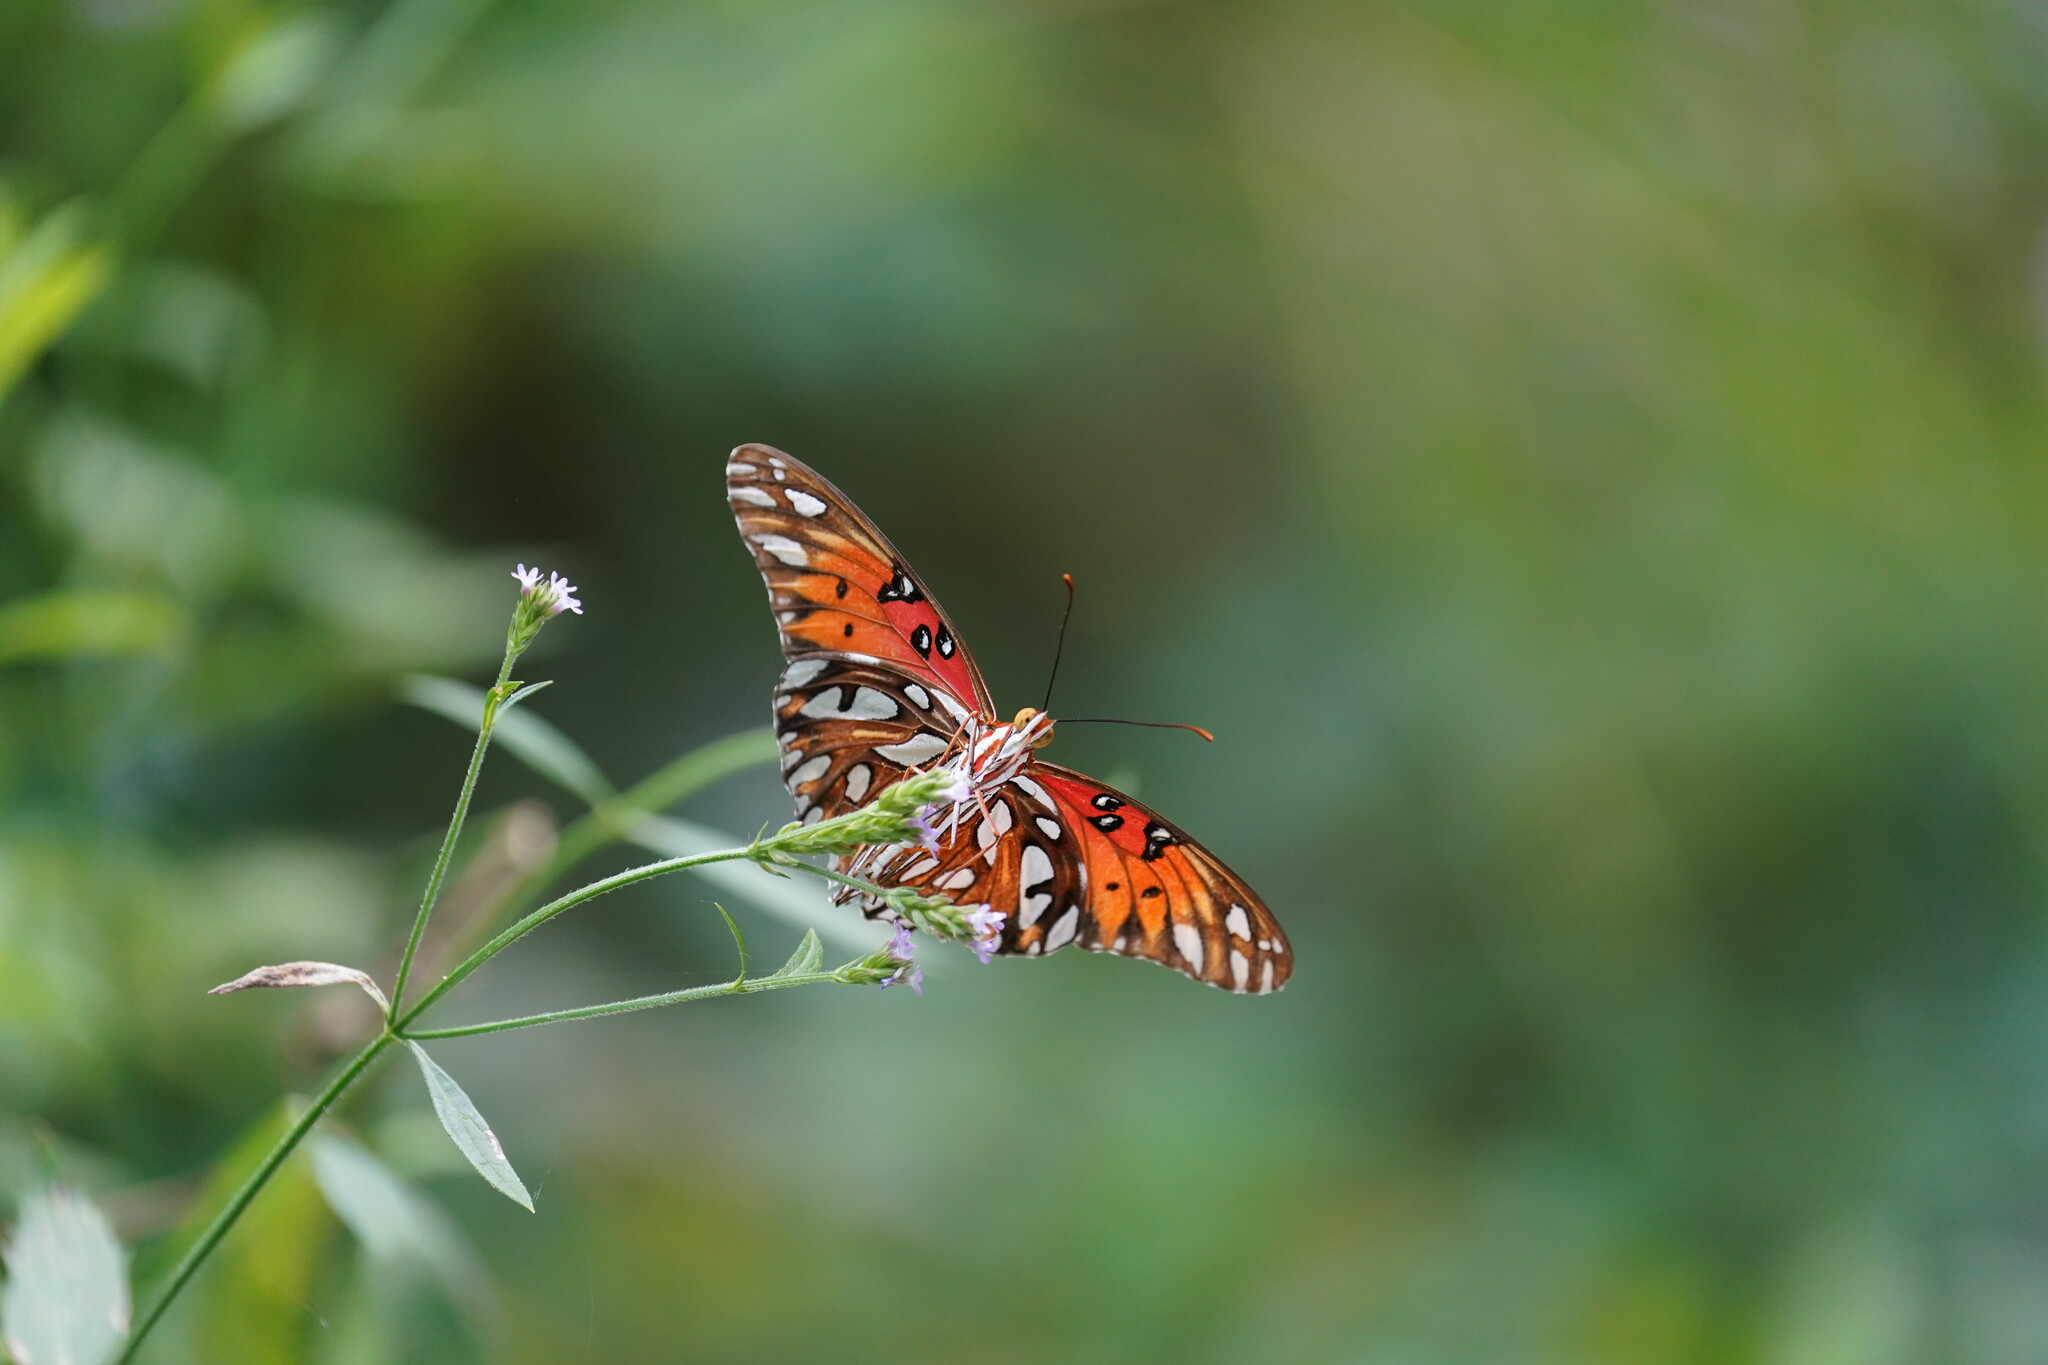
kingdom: Animalia
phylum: Arthropoda
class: Insecta
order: Lepidoptera
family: Nymphalidae
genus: Dione
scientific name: Dione vanillae
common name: Gulf fritillary
